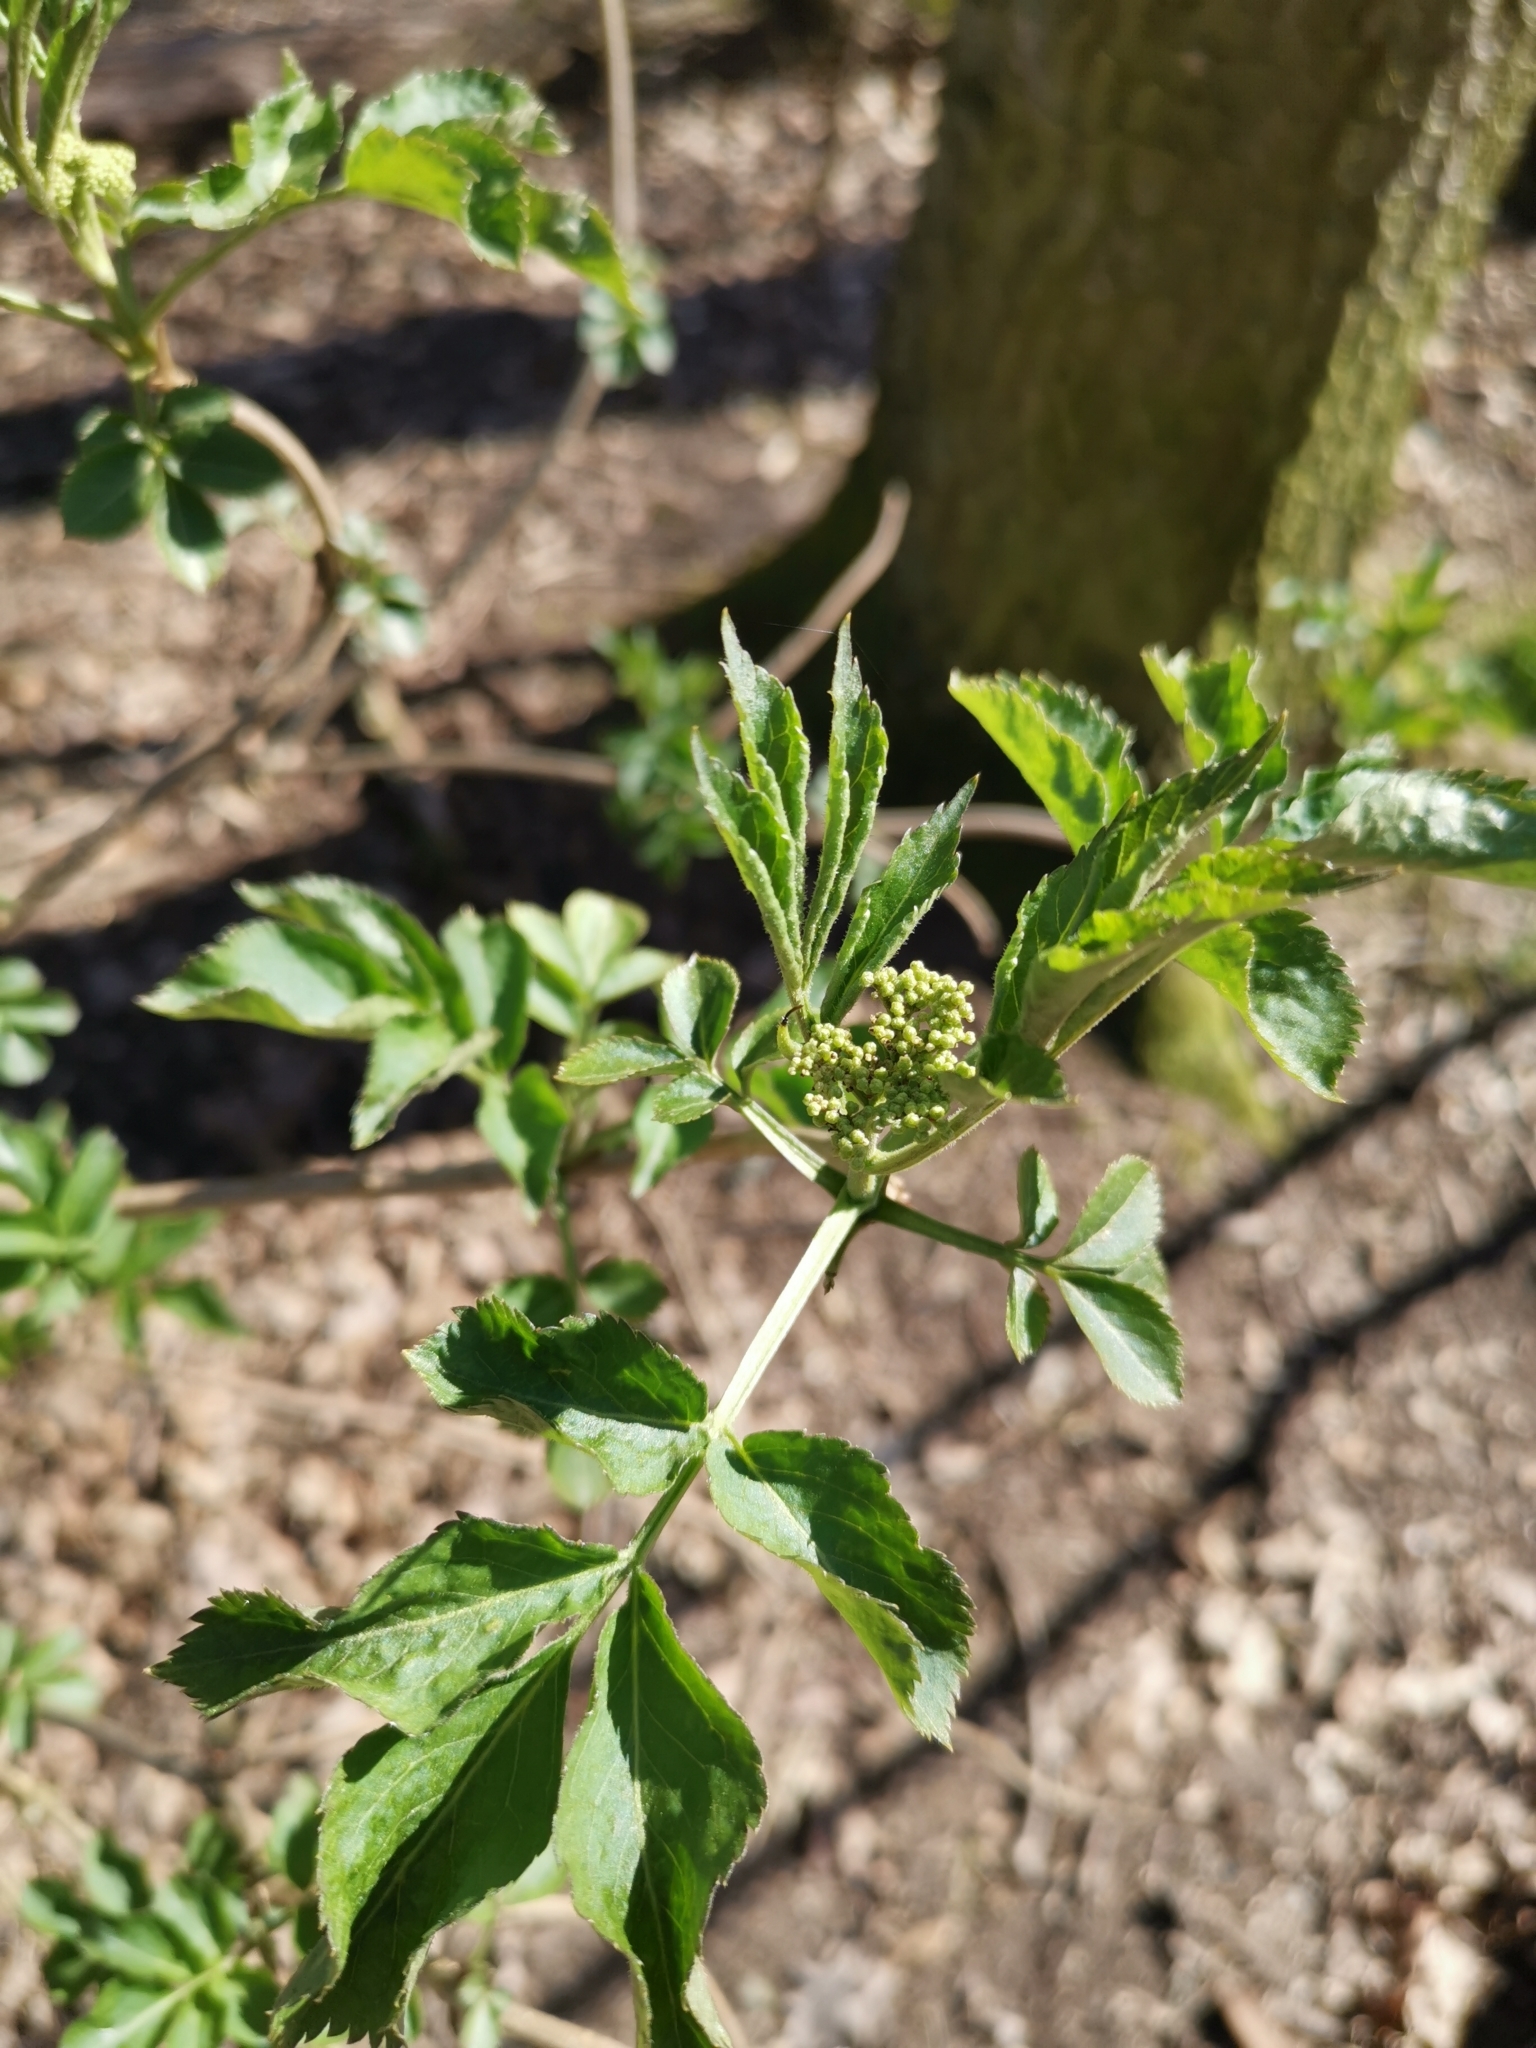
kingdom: Plantae
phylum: Tracheophyta
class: Magnoliopsida
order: Dipsacales
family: Viburnaceae
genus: Sambucus
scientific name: Sambucus nigra
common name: Elder
